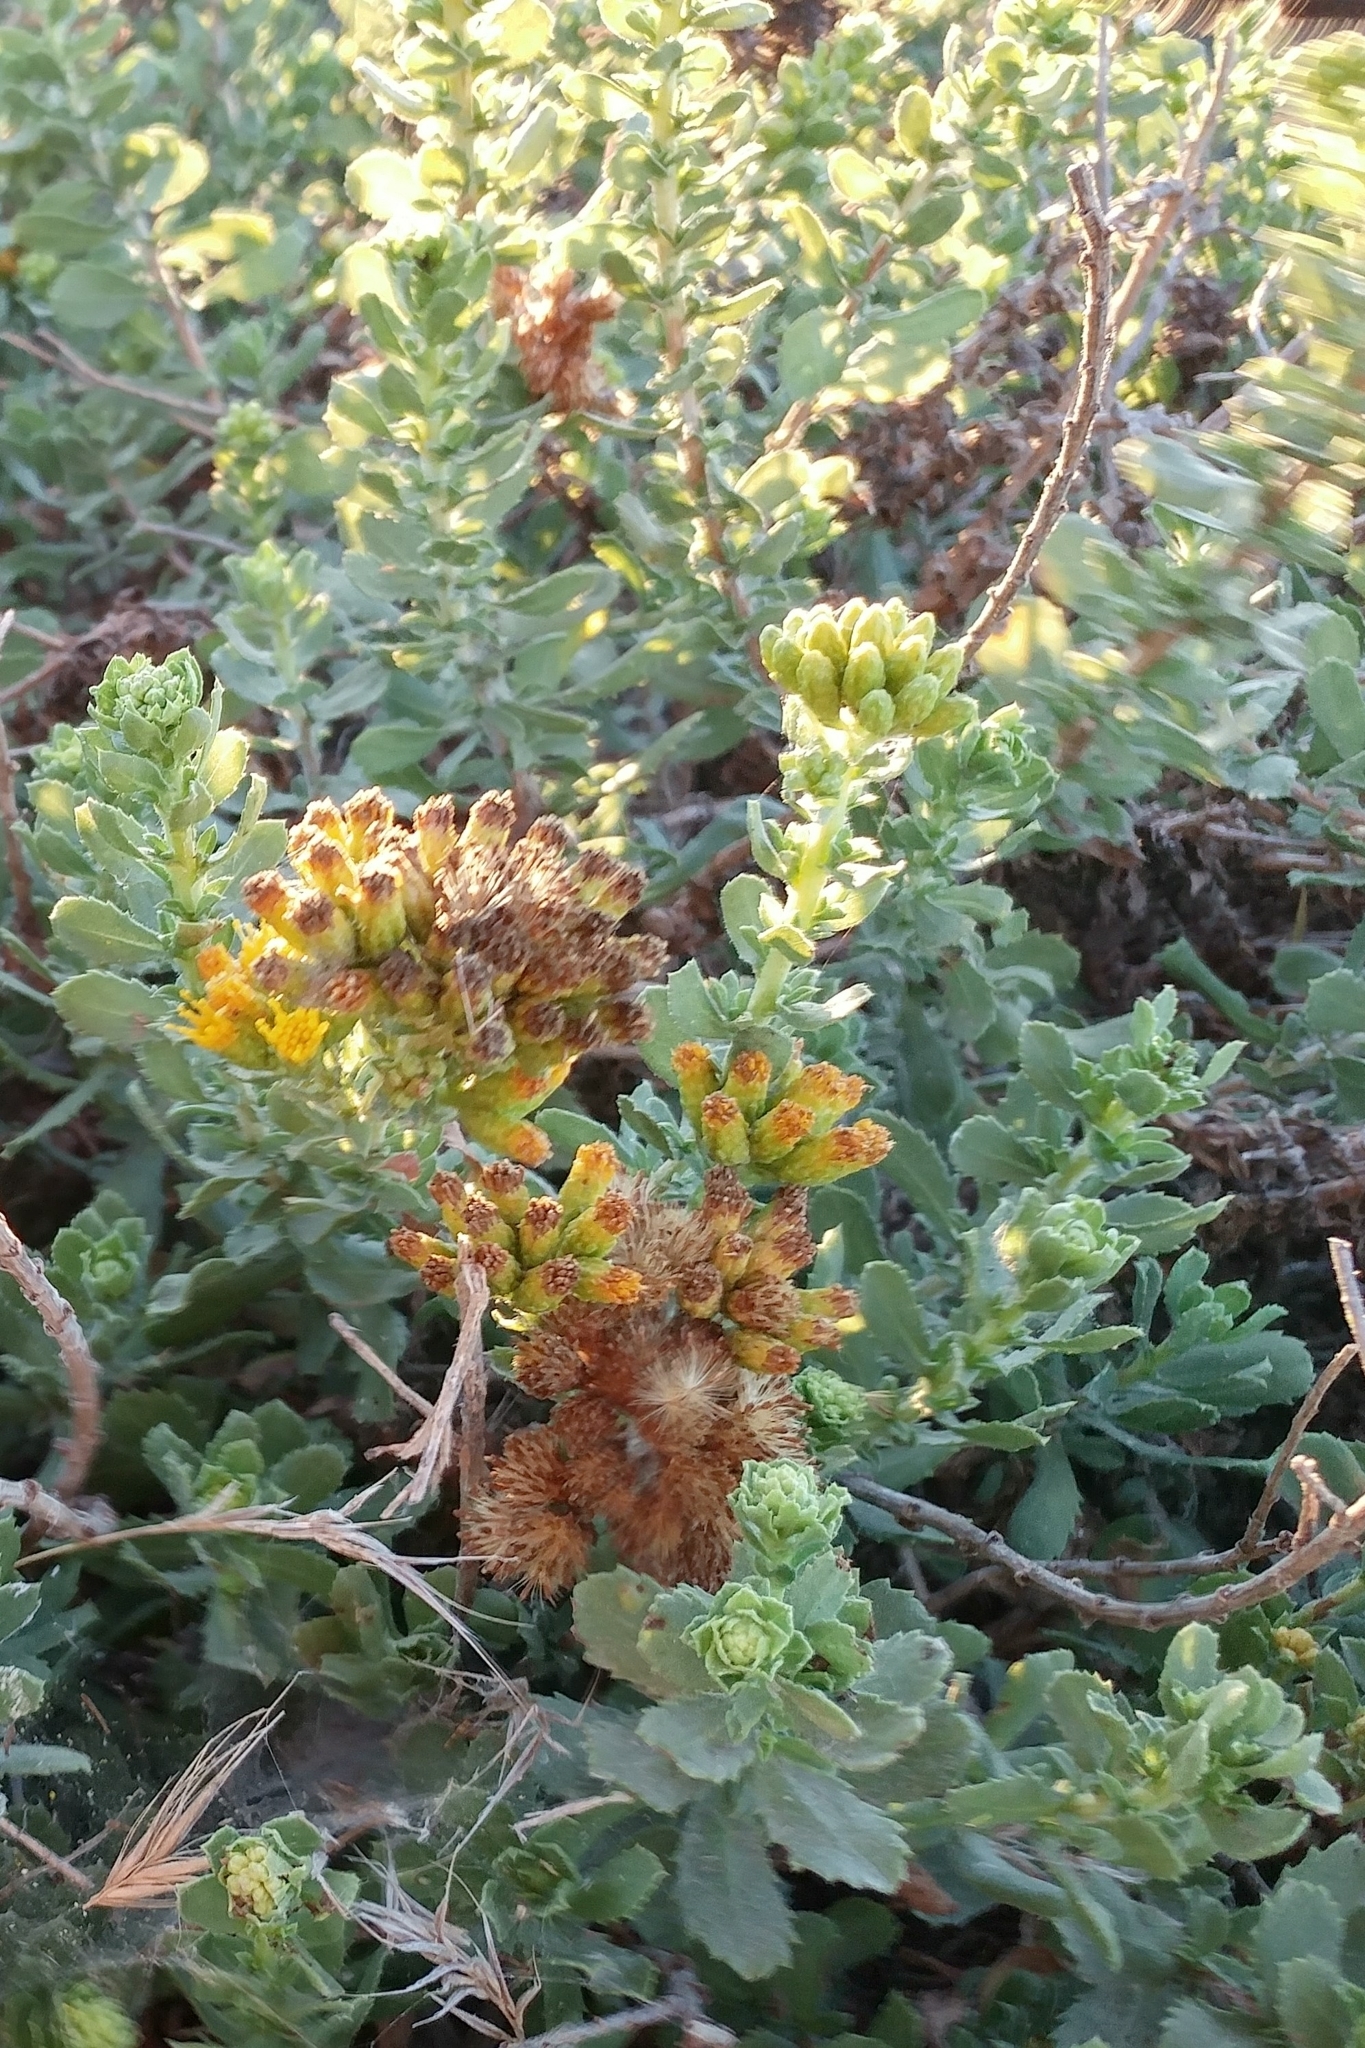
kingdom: Plantae
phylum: Tracheophyta
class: Magnoliopsida
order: Asterales
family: Asteraceae
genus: Isocoma
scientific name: Isocoma menziesii
